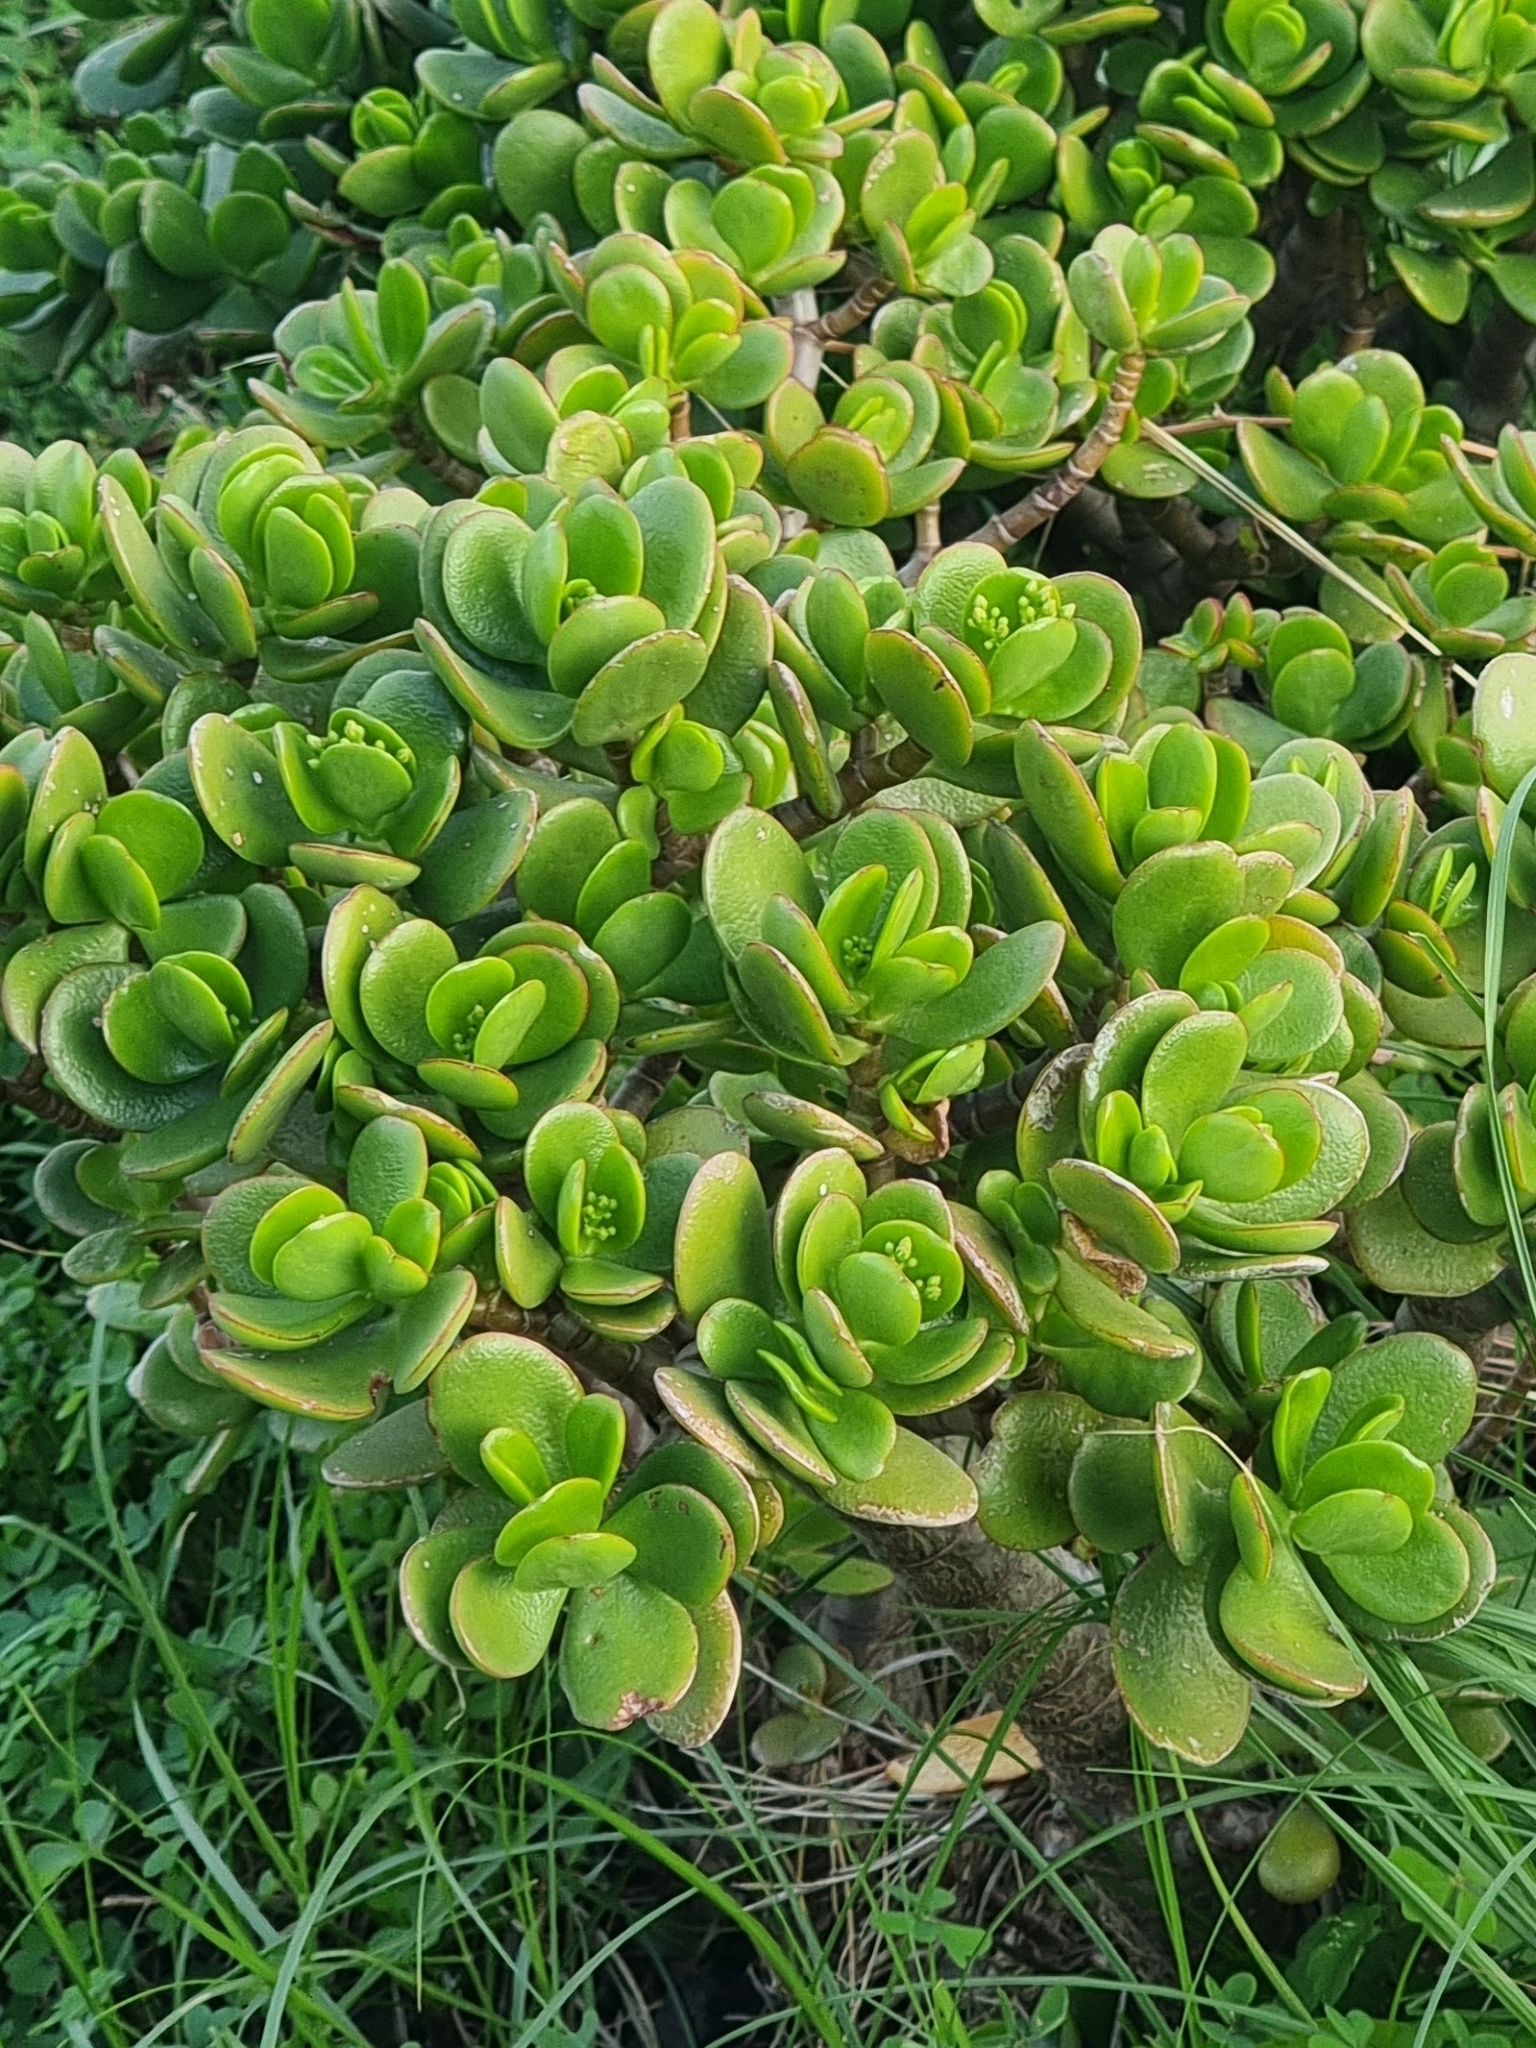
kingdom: Plantae
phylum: Tracheophyta
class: Magnoliopsida
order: Saxifragales
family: Crassulaceae
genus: Crassula
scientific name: Crassula ovata
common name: Jade plant
